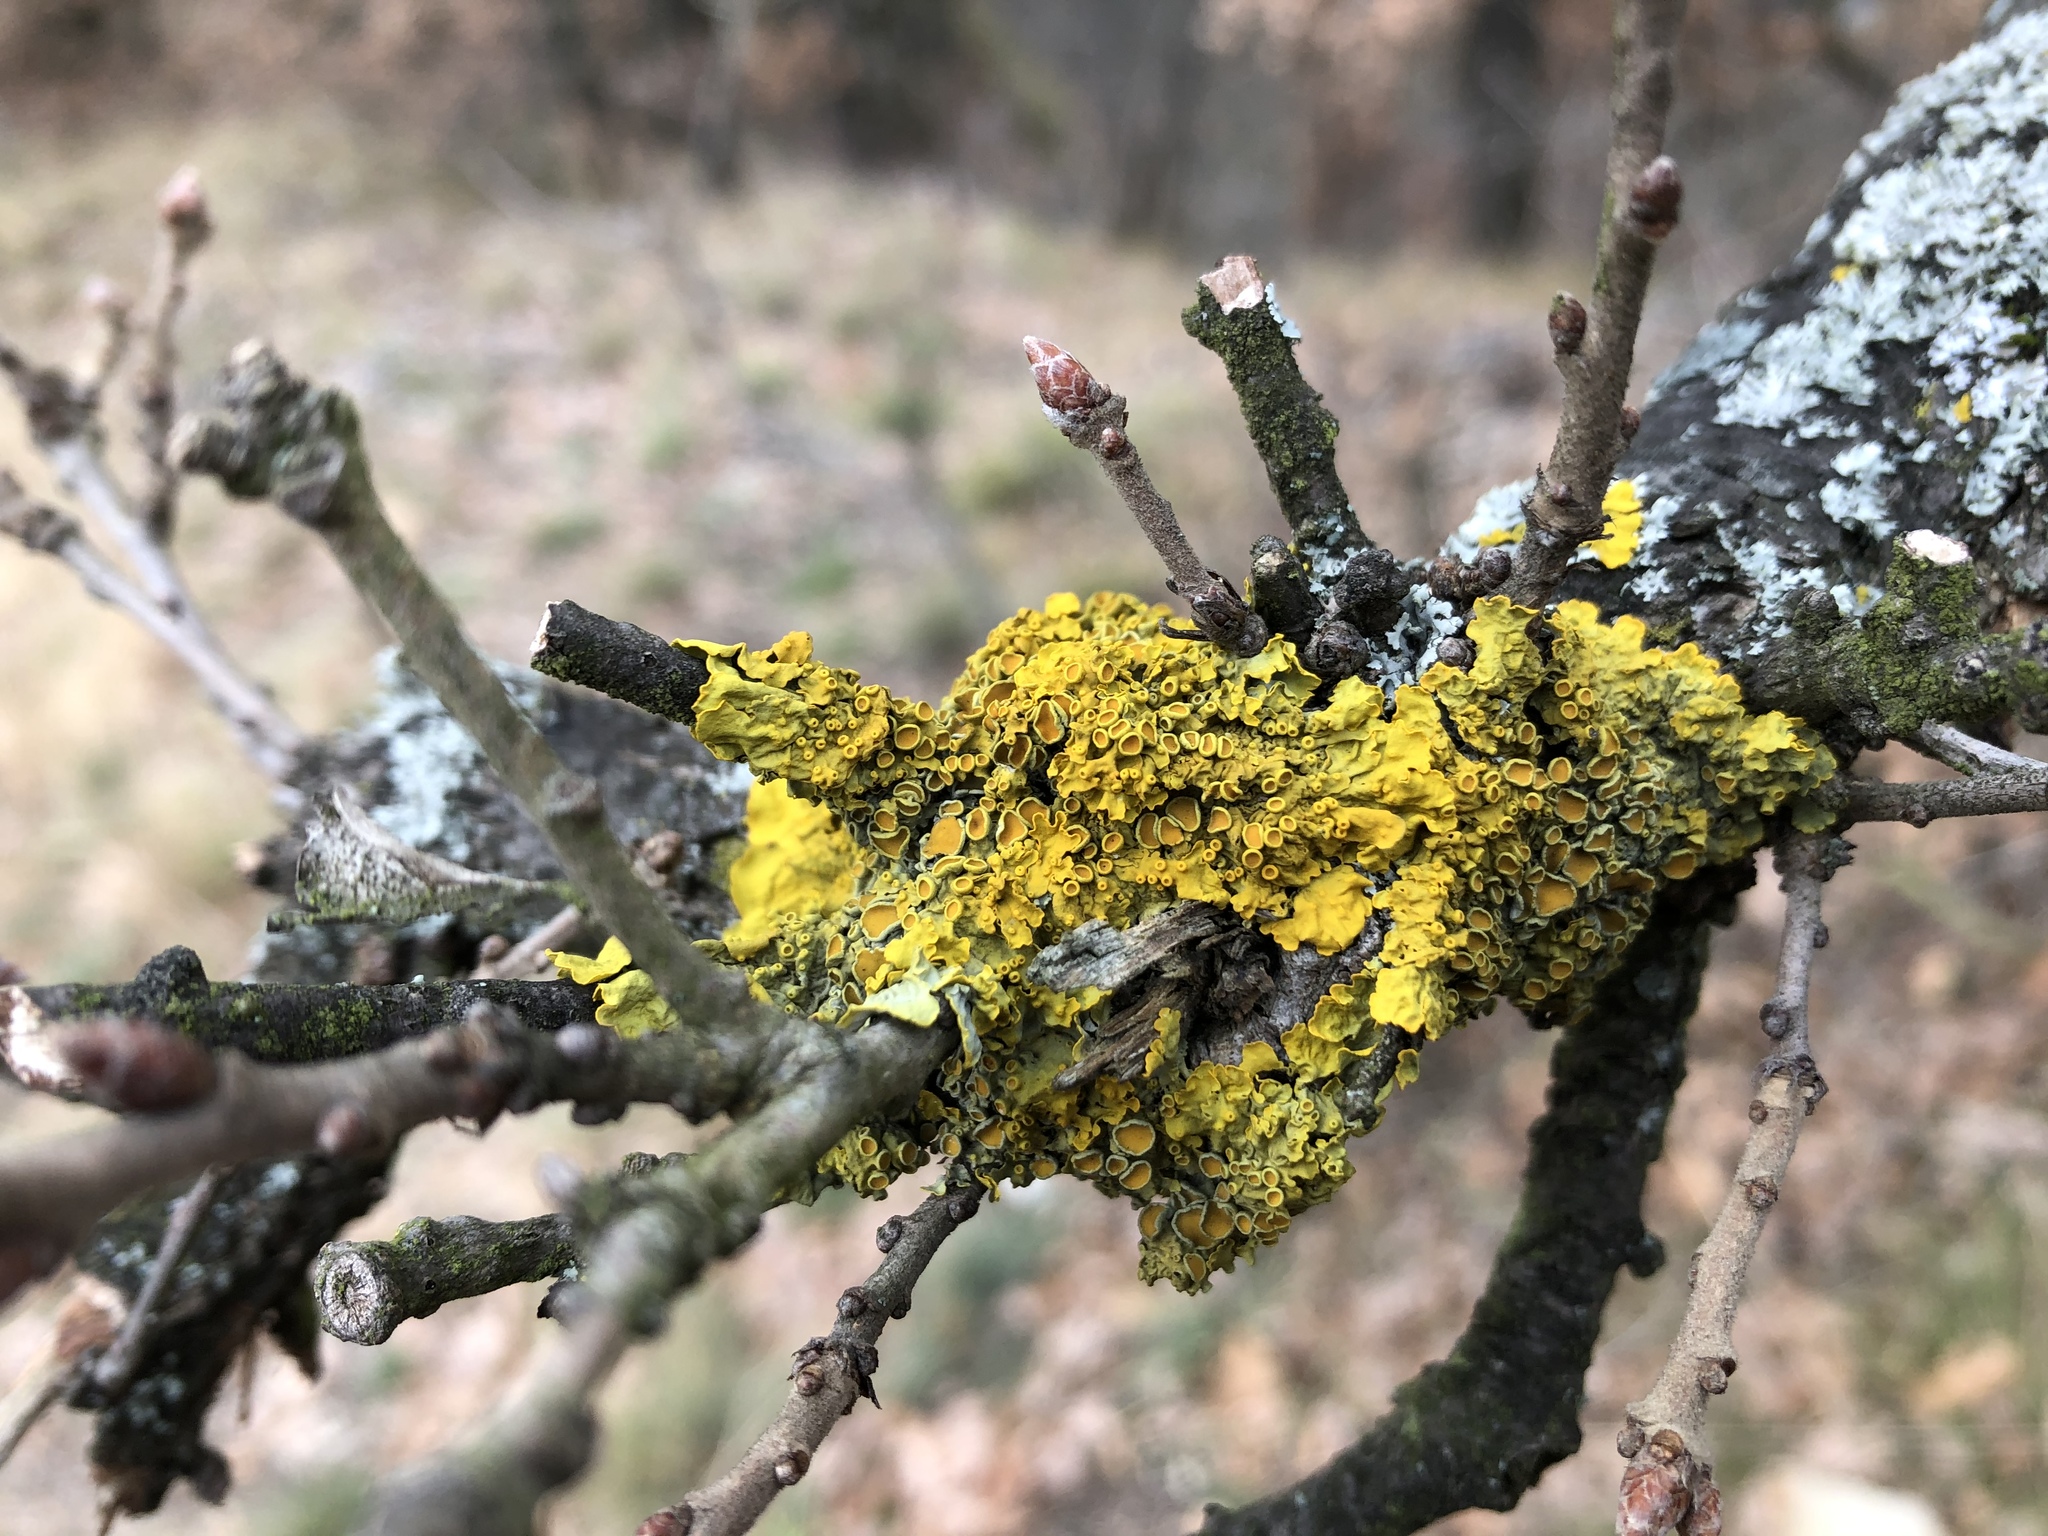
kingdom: Fungi
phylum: Ascomycota
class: Lecanoromycetes
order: Teloschistales
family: Teloschistaceae
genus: Xanthoria
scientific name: Xanthoria parietina
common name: Common orange lichen
